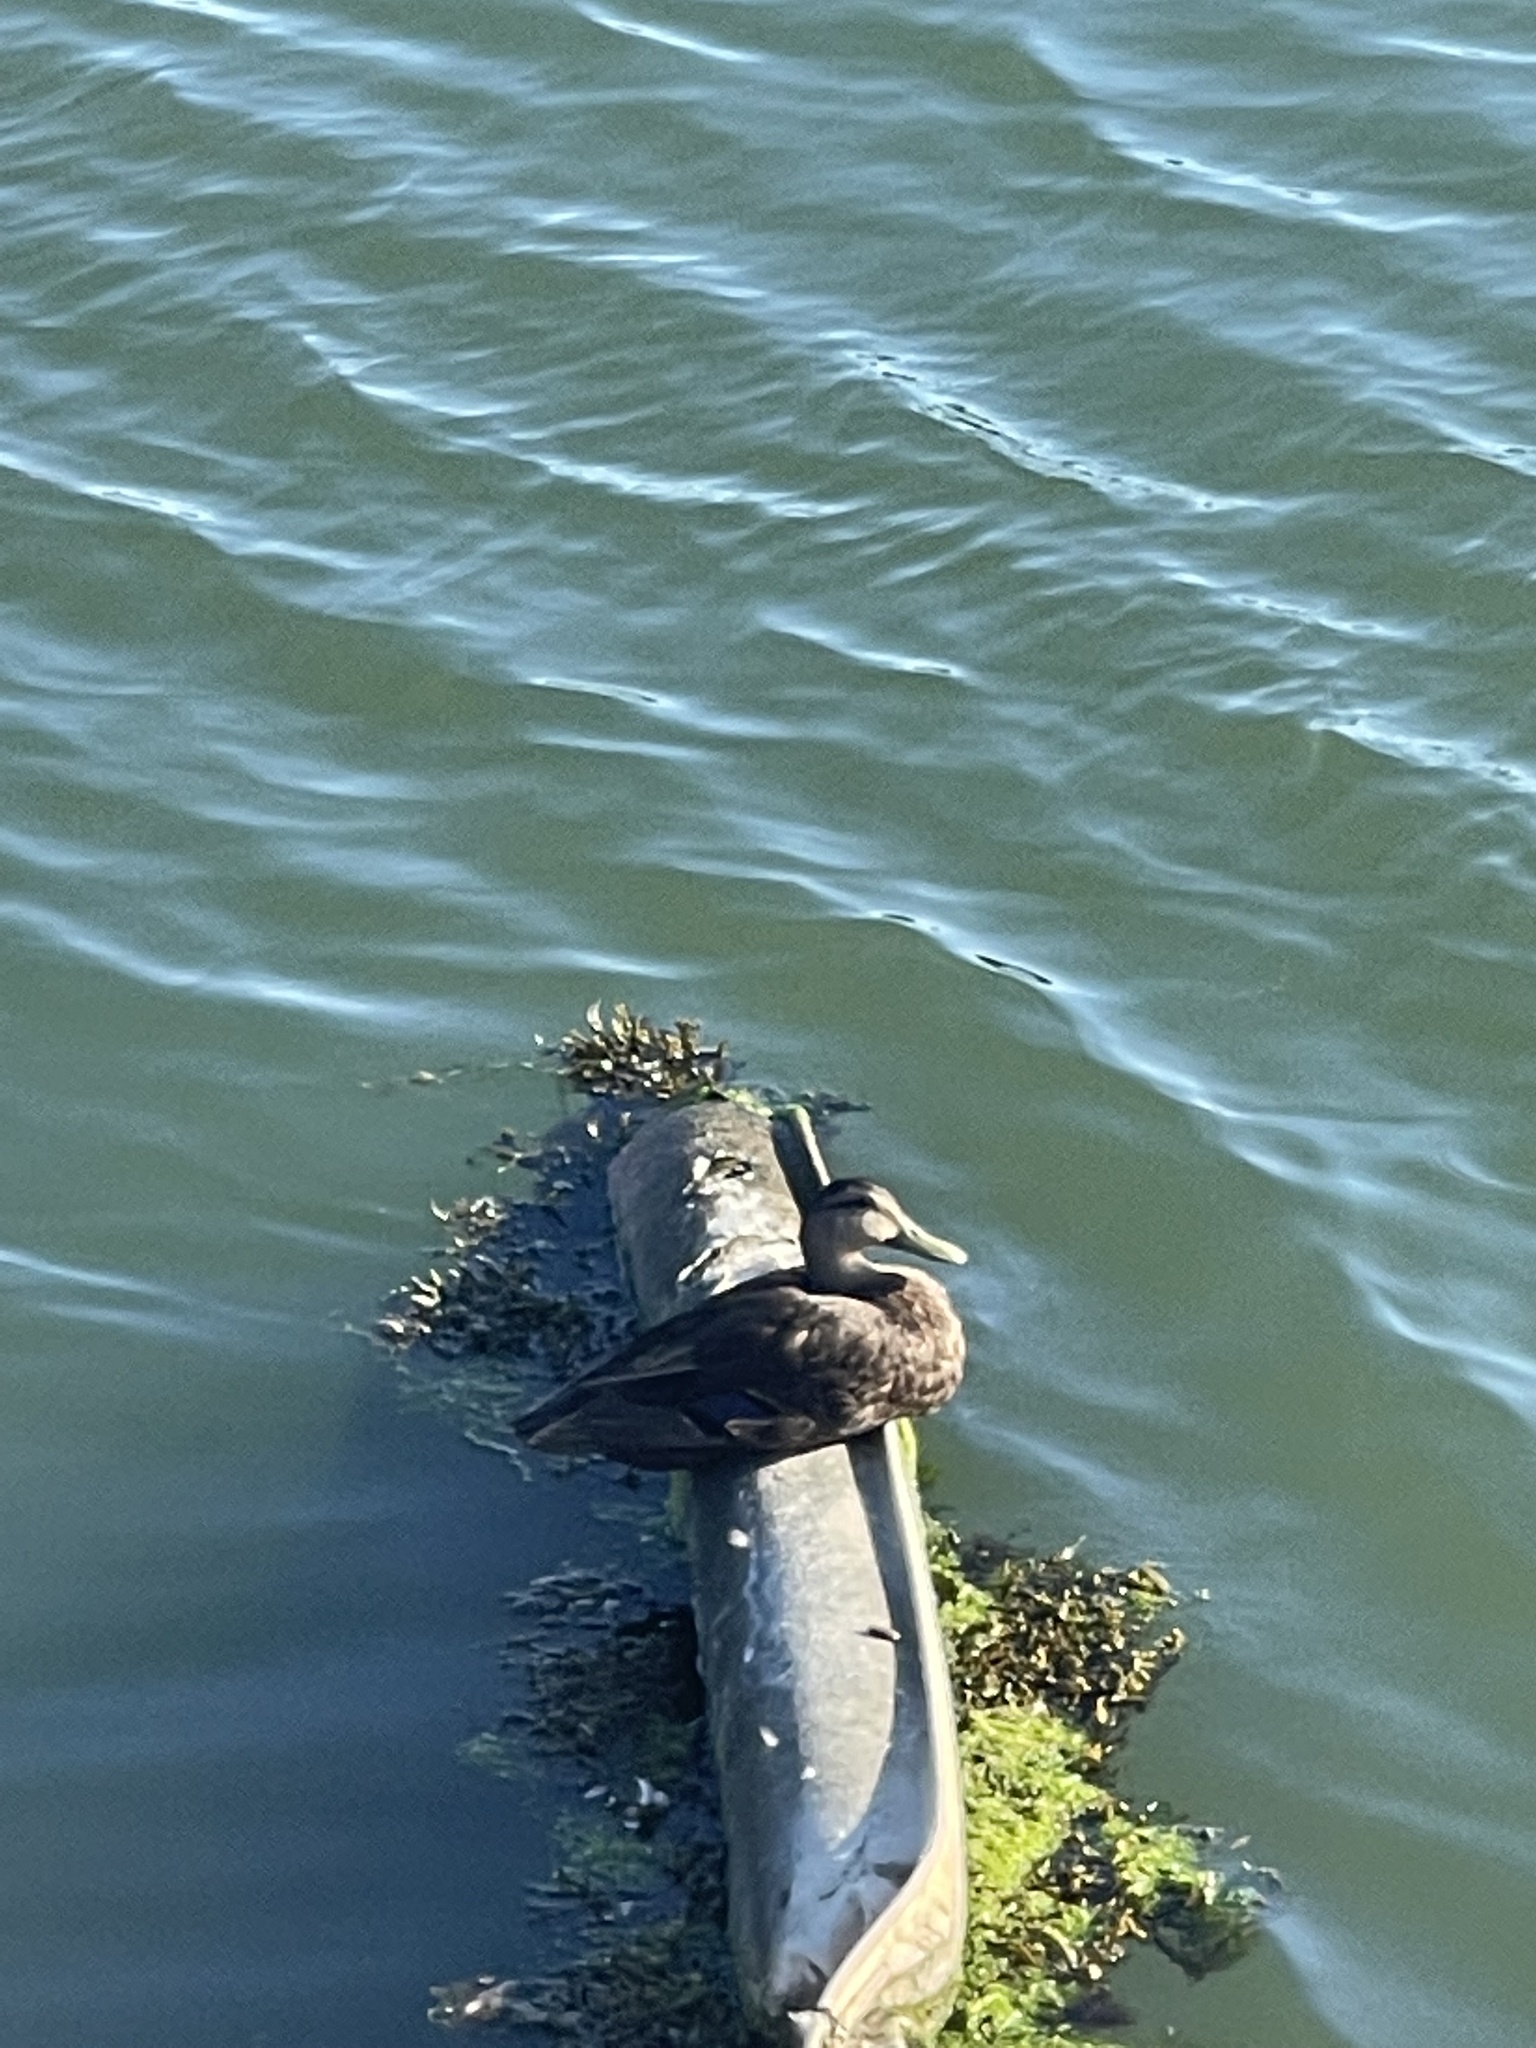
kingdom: Animalia
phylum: Chordata
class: Aves
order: Anseriformes
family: Anatidae
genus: Anas
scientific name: Anas rubripes
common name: American black duck
